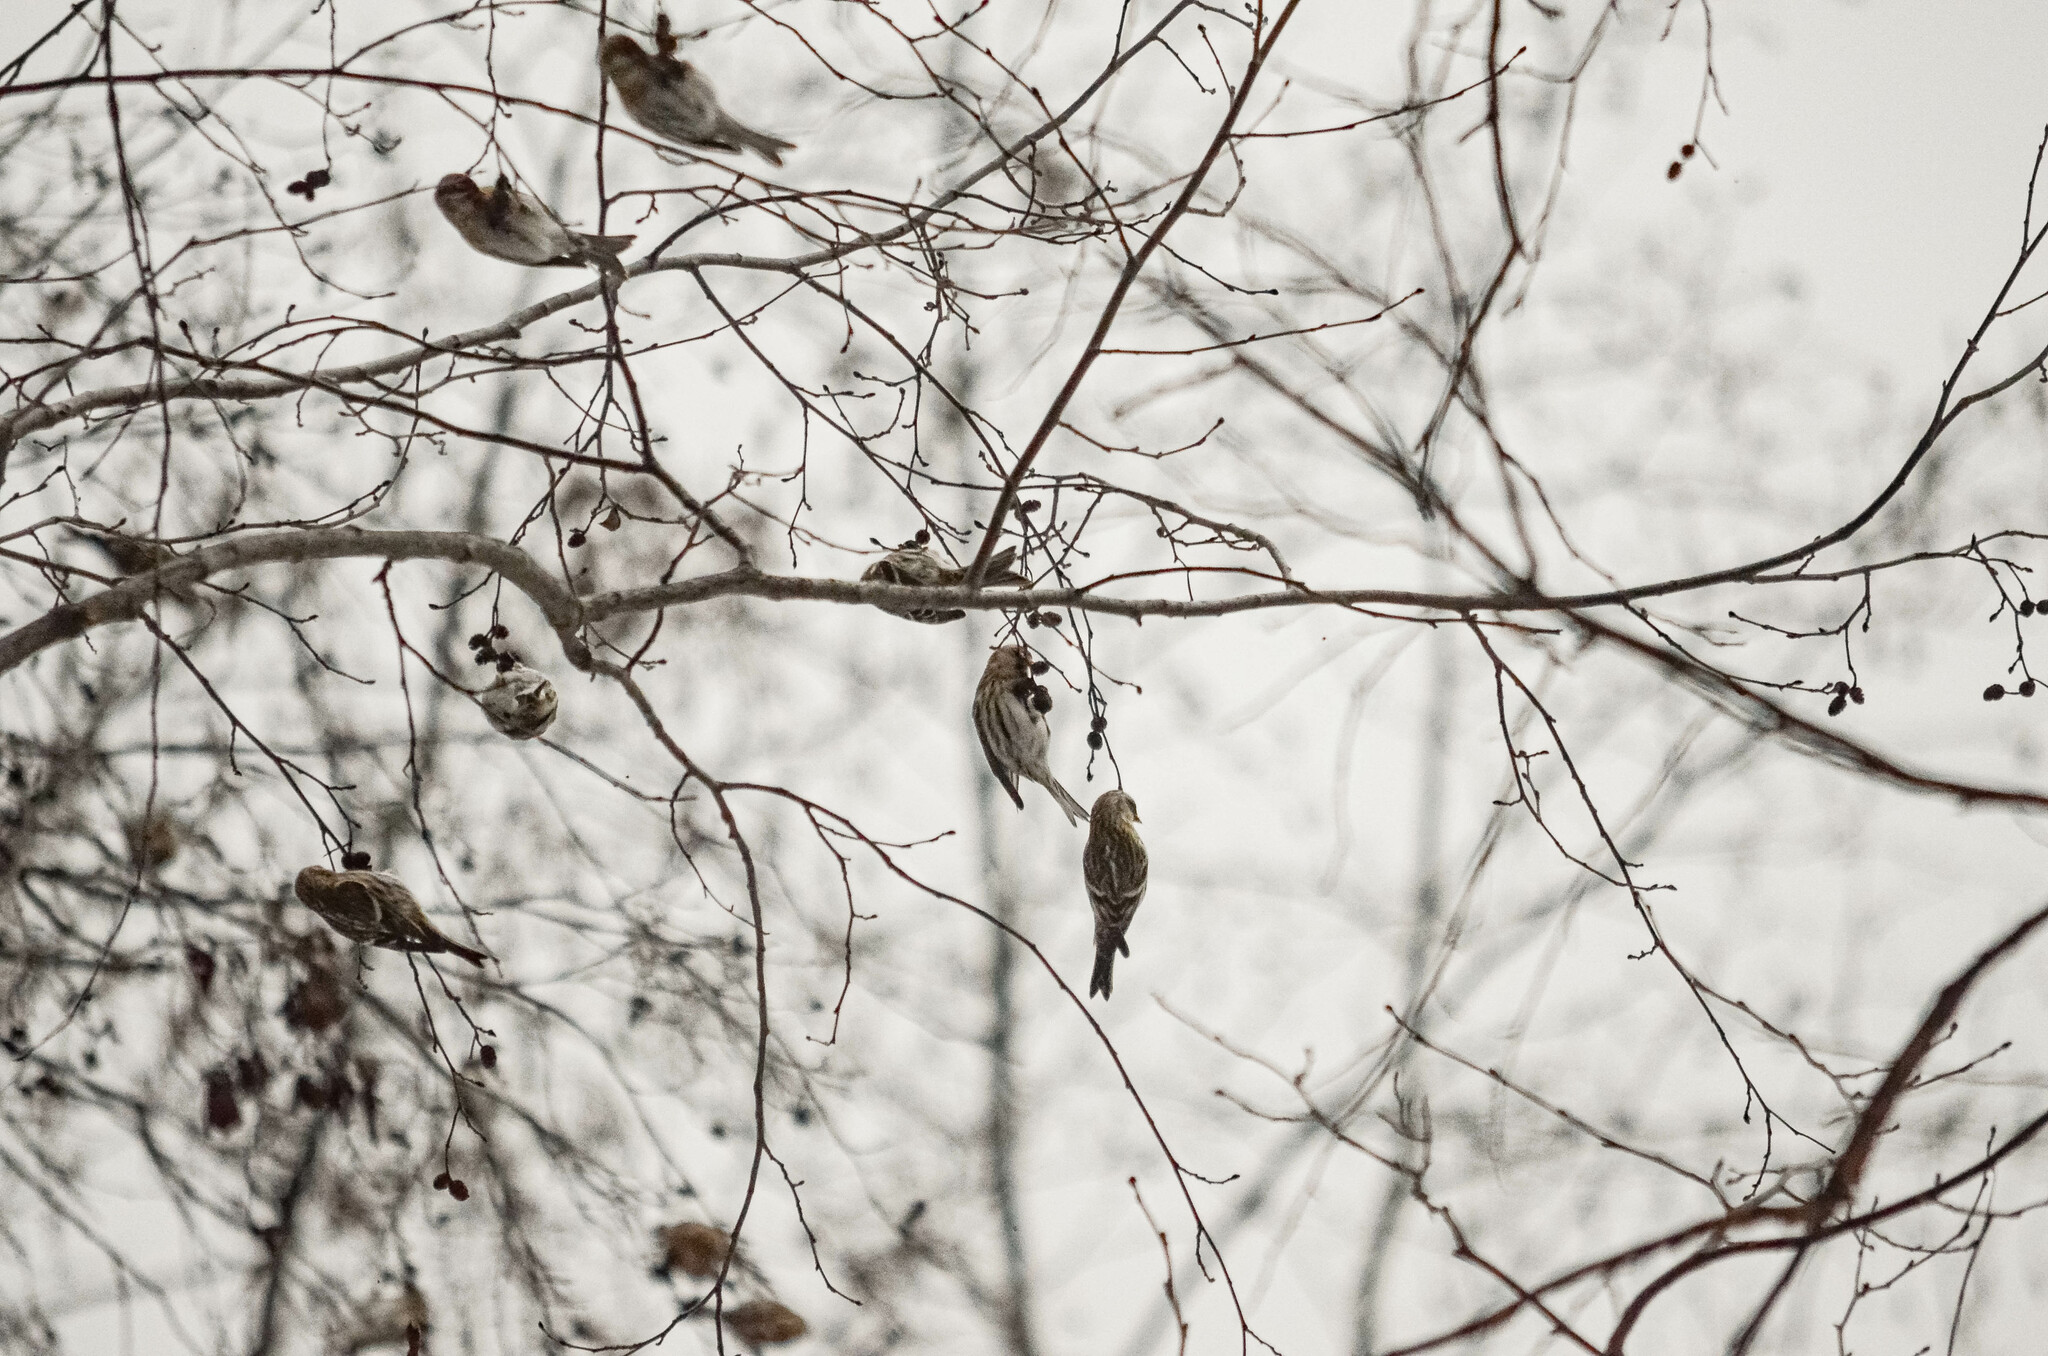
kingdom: Animalia
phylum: Chordata
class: Aves
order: Passeriformes
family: Fringillidae
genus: Acanthis
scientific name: Acanthis flammea
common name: Common redpoll
